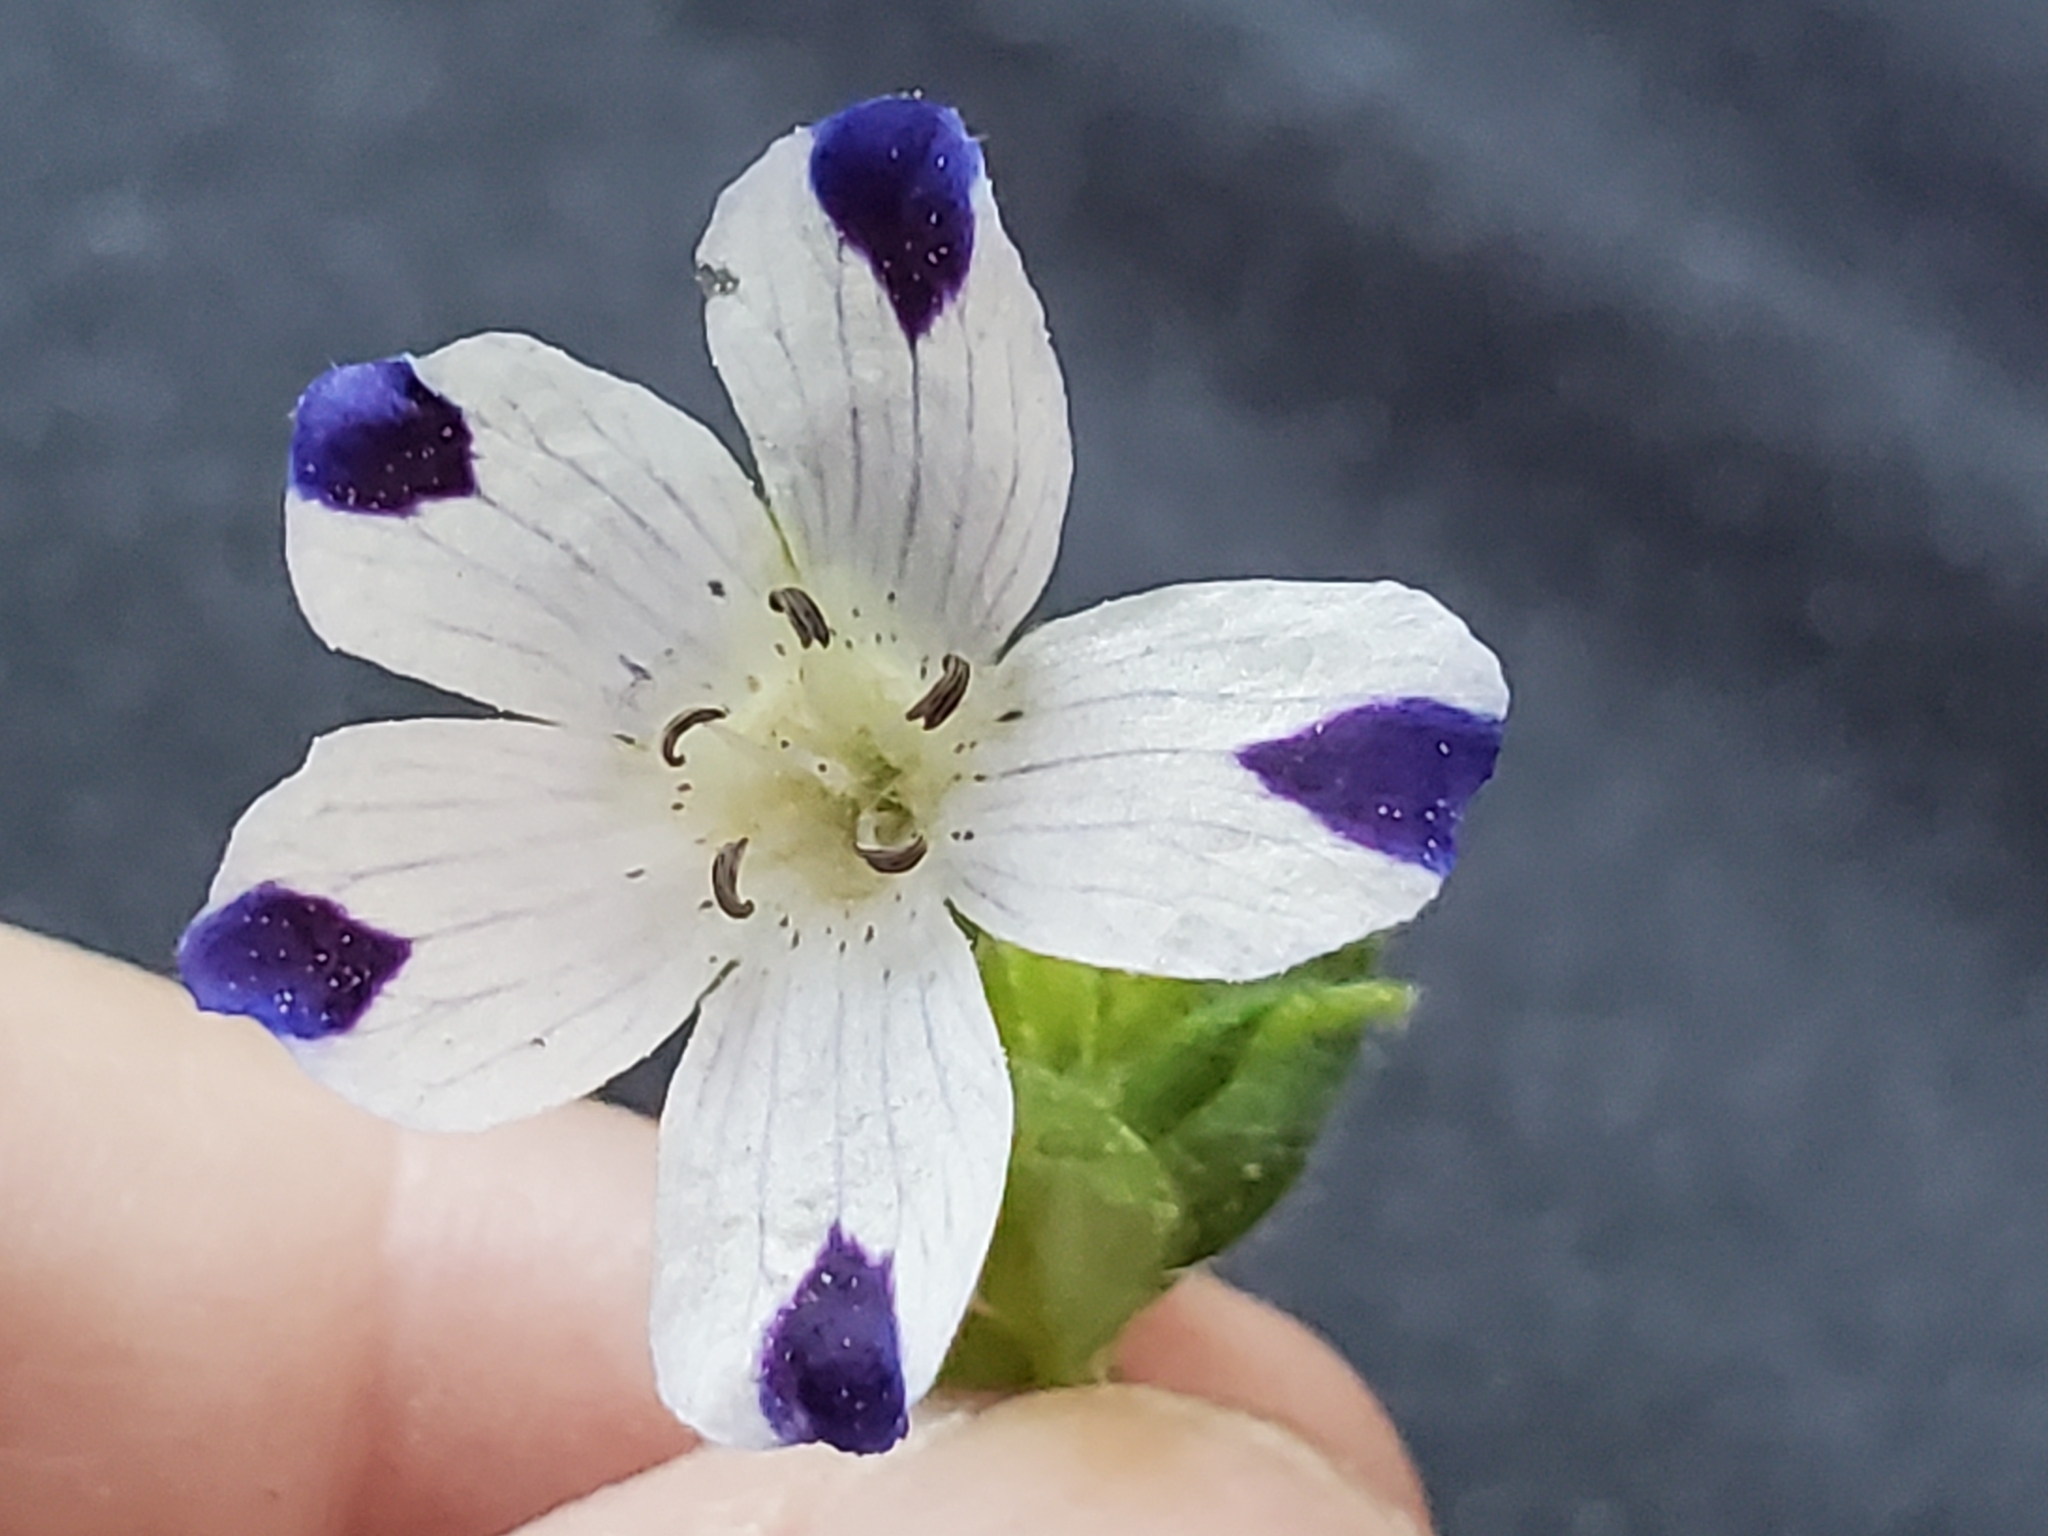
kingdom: Plantae
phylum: Tracheophyta
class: Magnoliopsida
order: Boraginales
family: Hydrophyllaceae
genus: Nemophila
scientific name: Nemophila maculata
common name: Fivespot
